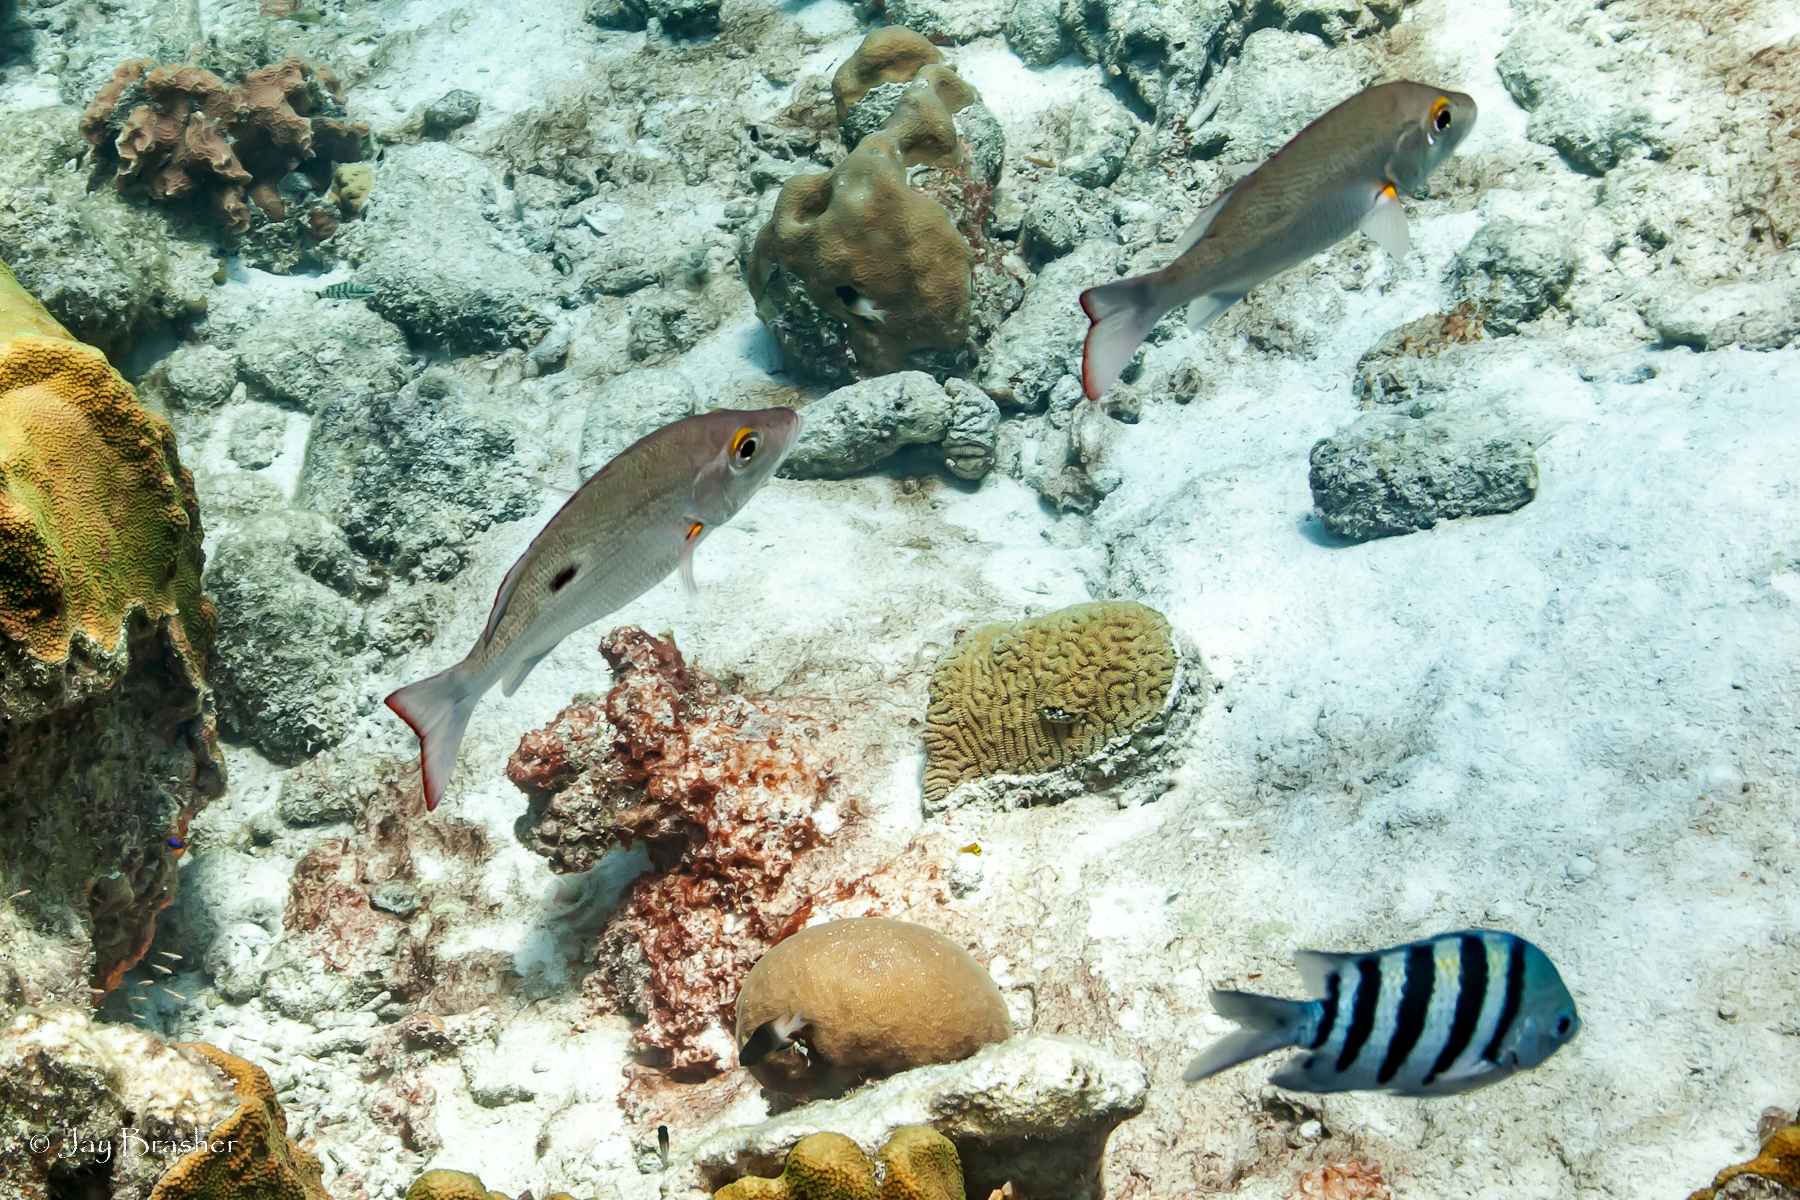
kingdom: Animalia
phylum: Chordata
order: Perciformes
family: Pomacentridae
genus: Abudefduf
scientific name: Abudefduf saxatilis
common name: Sergeant major
